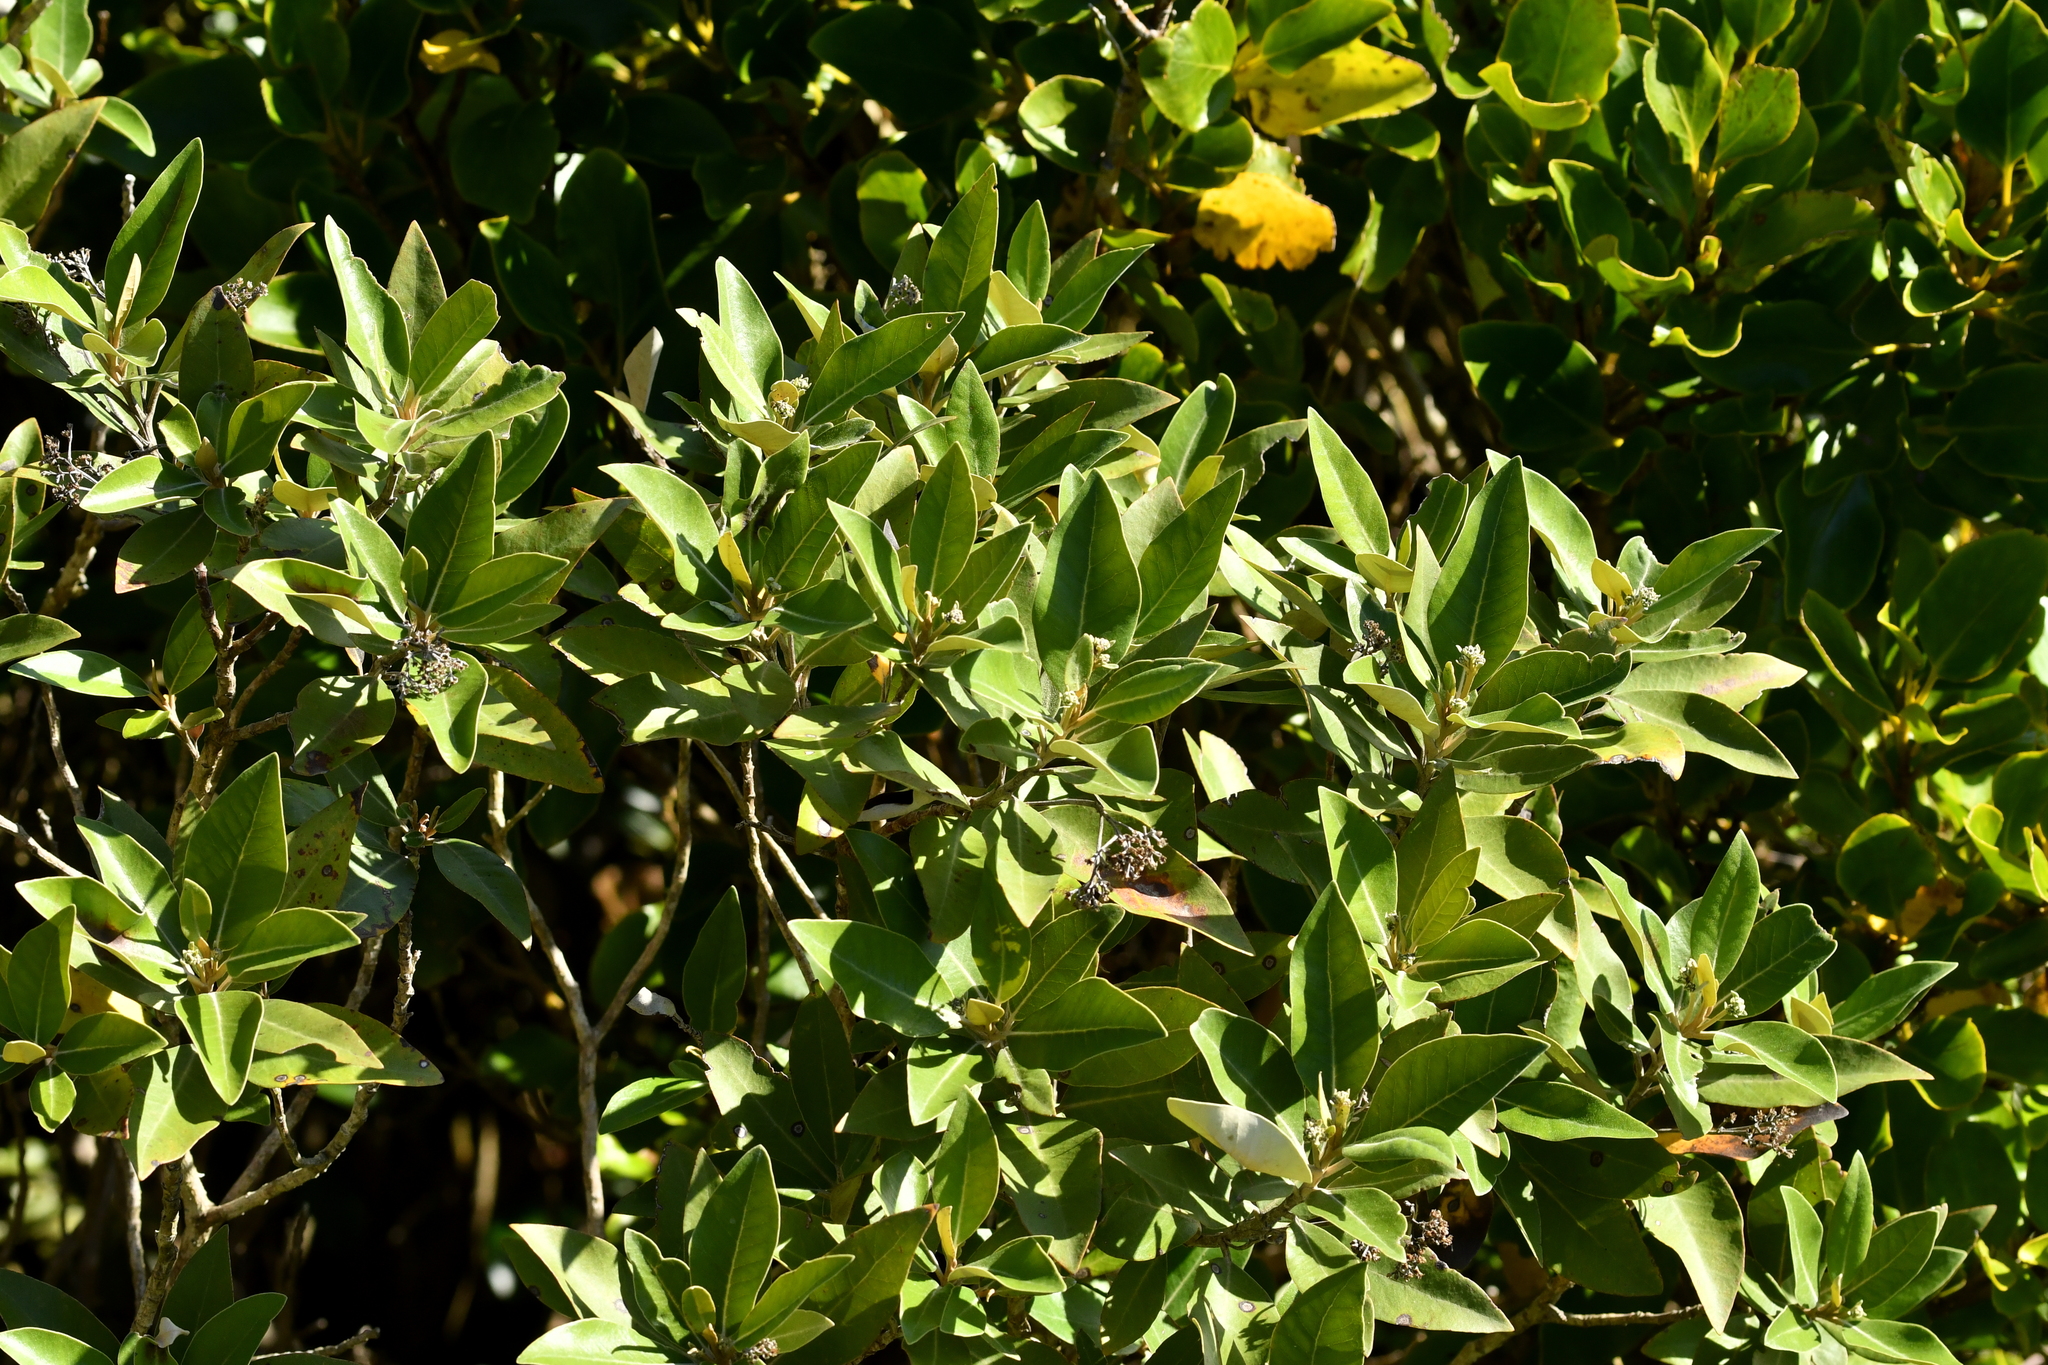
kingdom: Plantae
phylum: Tracheophyta
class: Magnoliopsida
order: Asterales
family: Asteraceae
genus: Olearia
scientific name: Olearia avicenniifolia
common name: Mangrove-leaf daisybush
